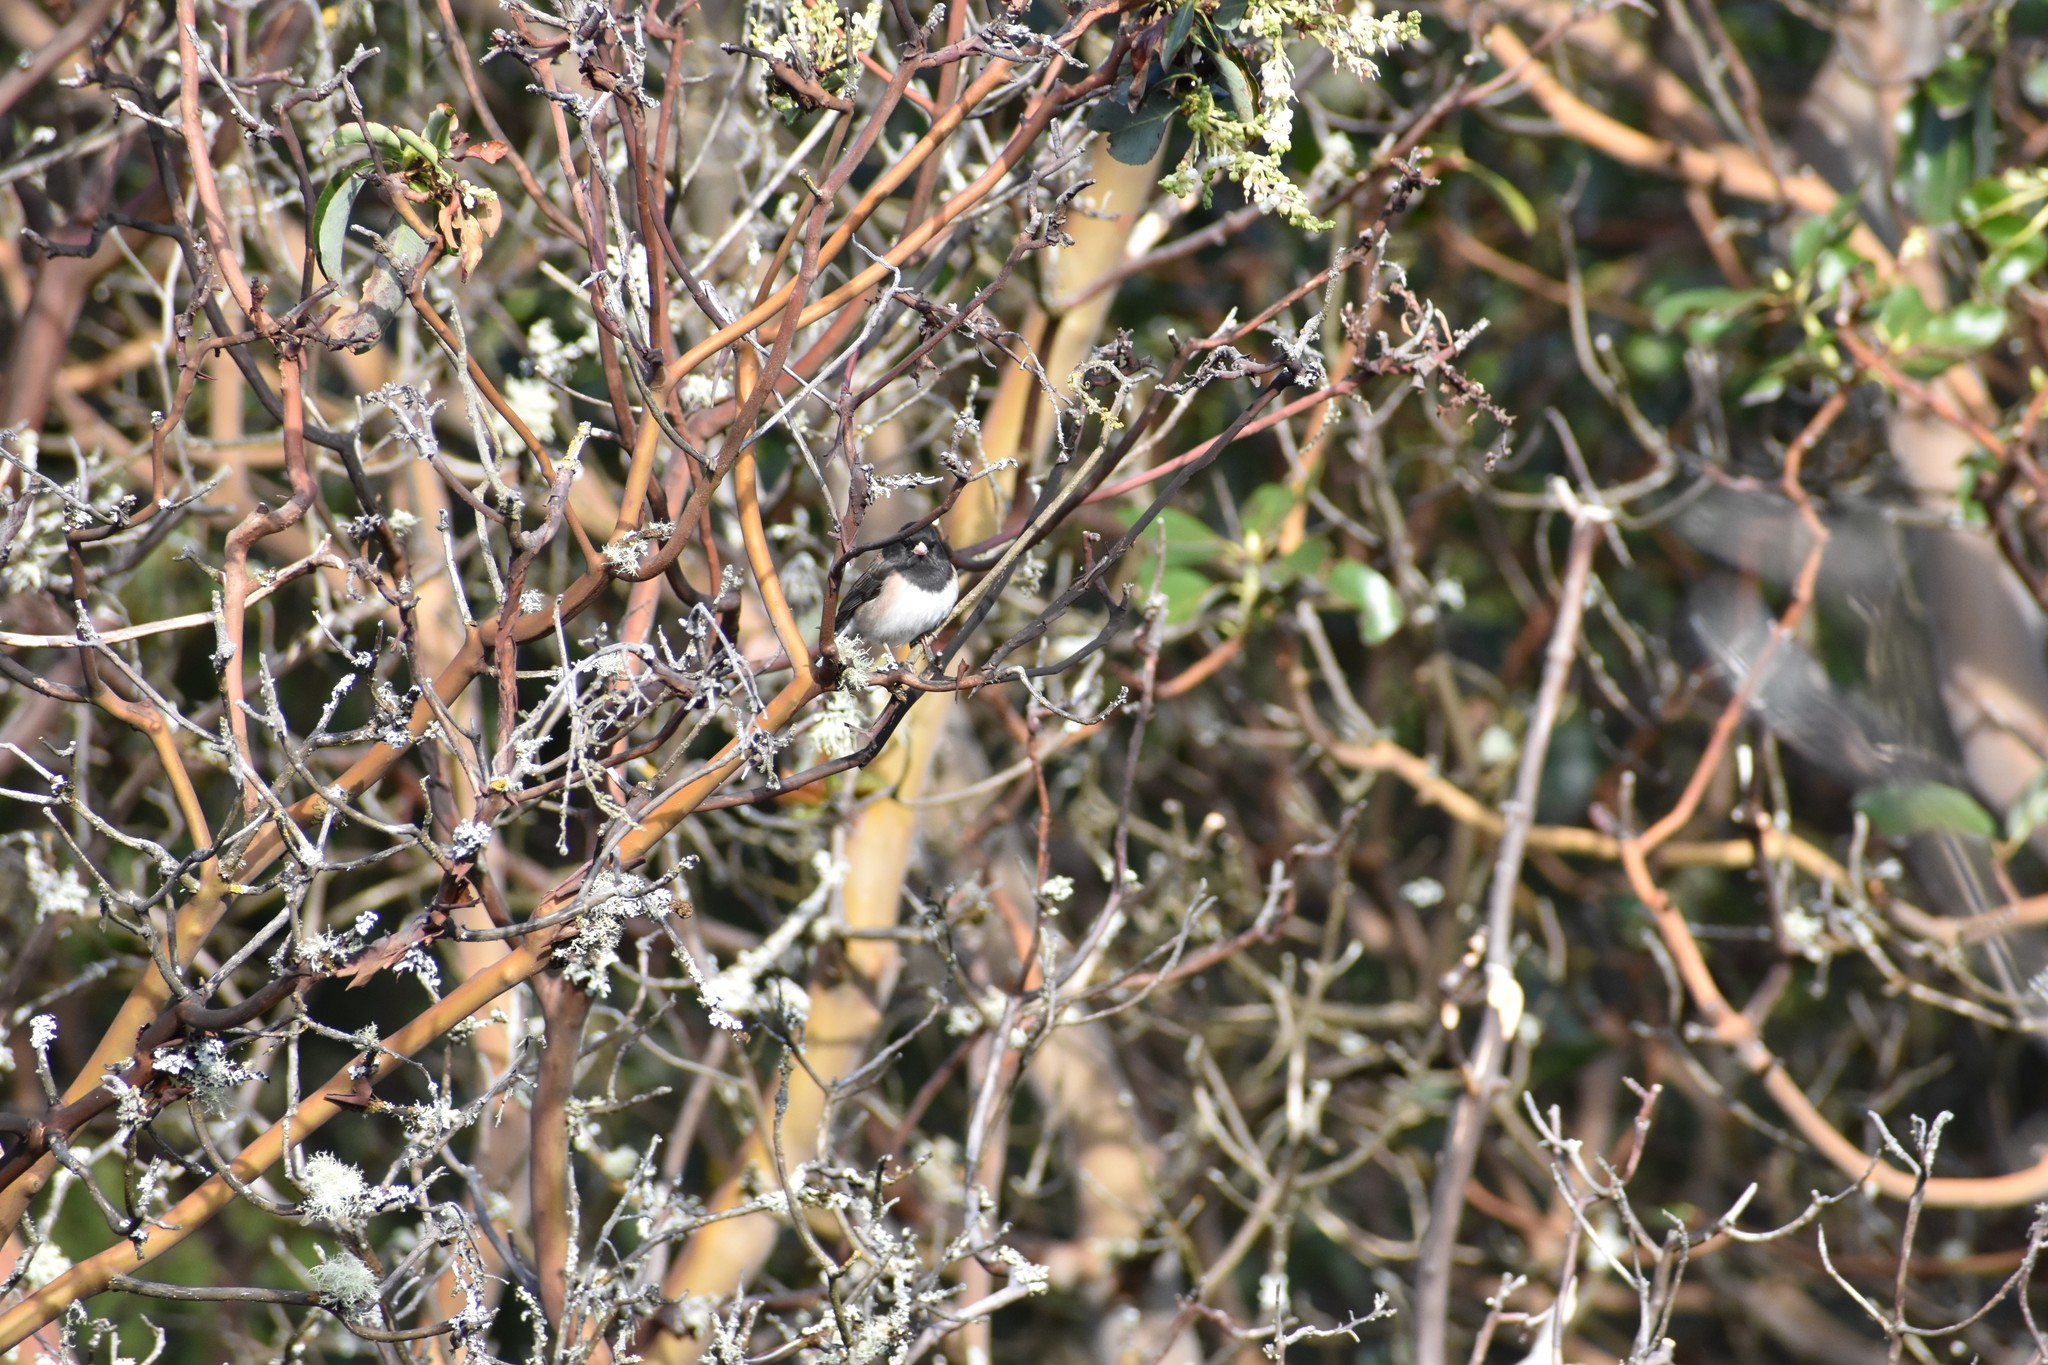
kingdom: Animalia
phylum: Chordata
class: Aves
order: Passeriformes
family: Passerellidae
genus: Junco
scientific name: Junco hyemalis
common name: Dark-eyed junco
